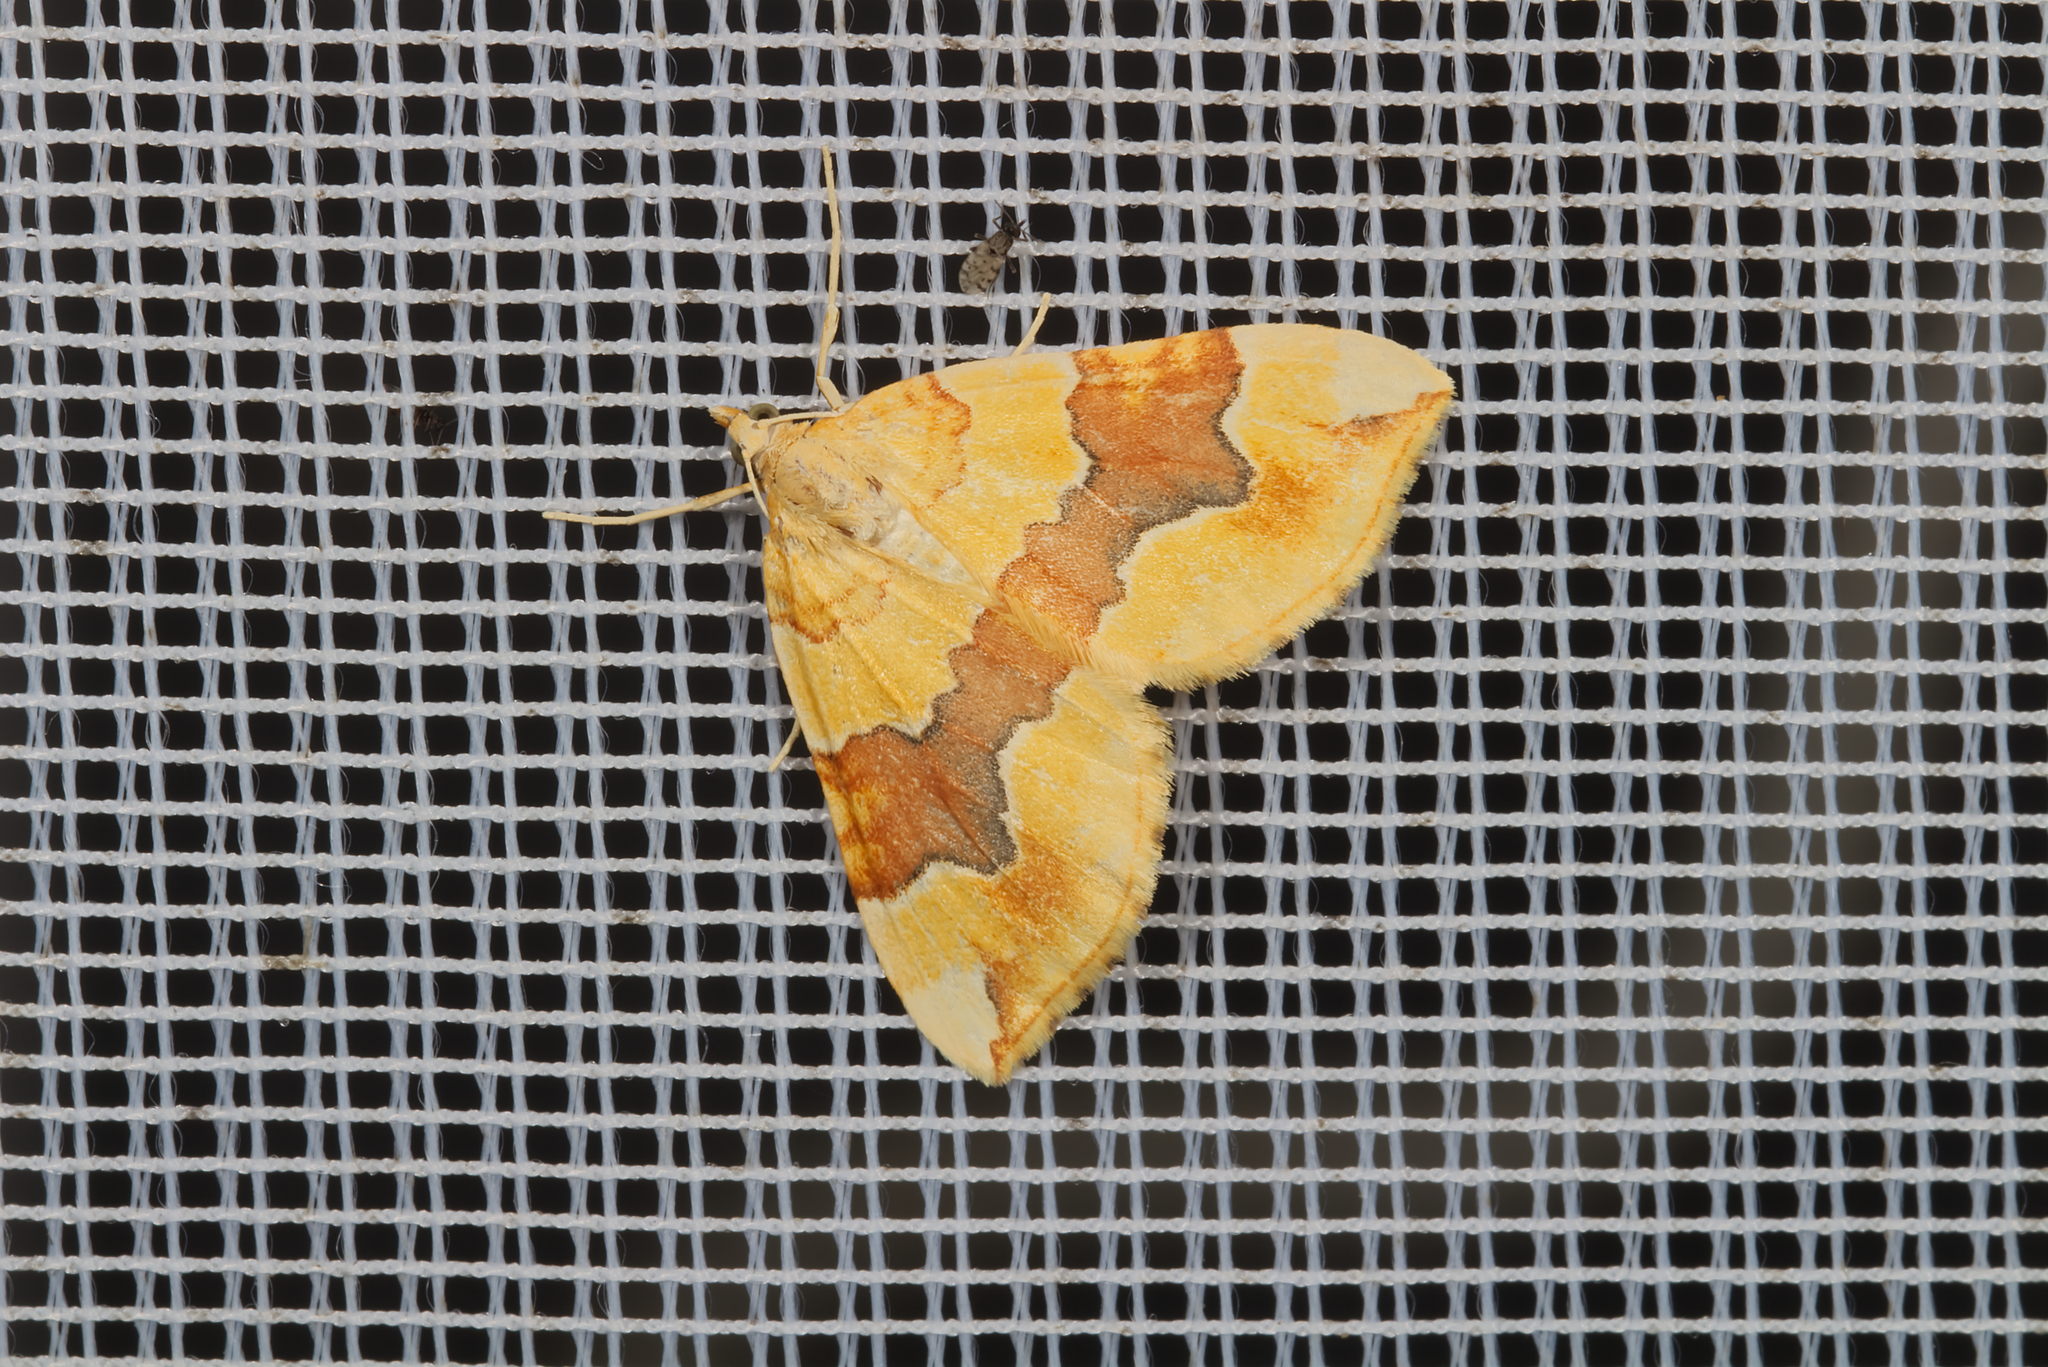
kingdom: Animalia
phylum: Arthropoda
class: Insecta
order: Lepidoptera
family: Geometridae
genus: Cidaria
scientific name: Cidaria fulvata
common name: Barred yellow
